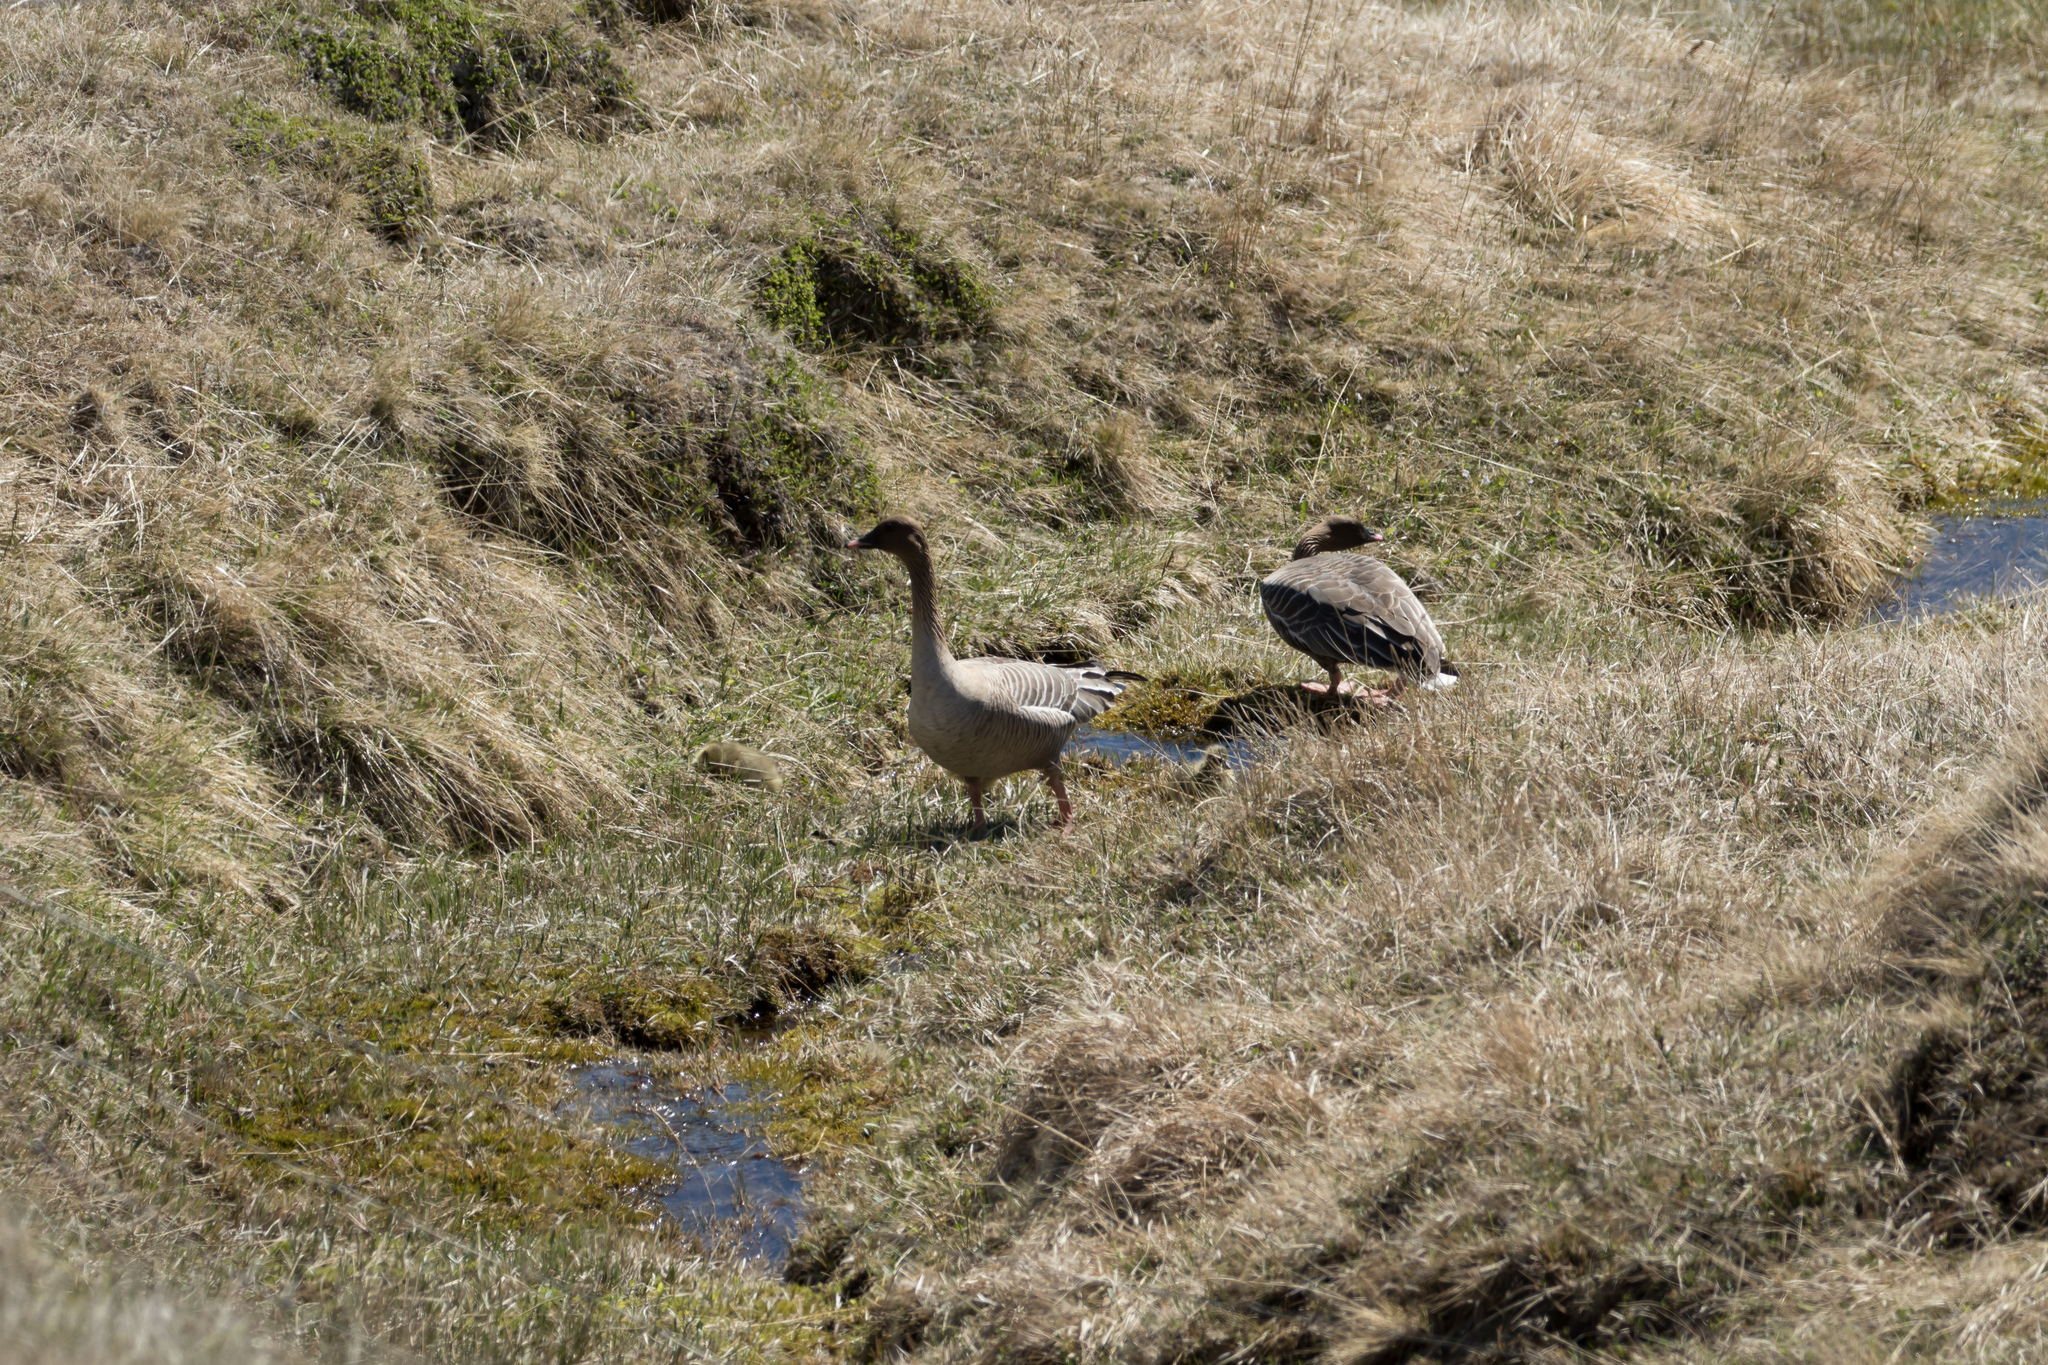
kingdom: Animalia
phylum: Chordata
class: Aves
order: Anseriformes
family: Anatidae
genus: Anser
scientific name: Anser brachyrhynchus
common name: Pink-footed goose
